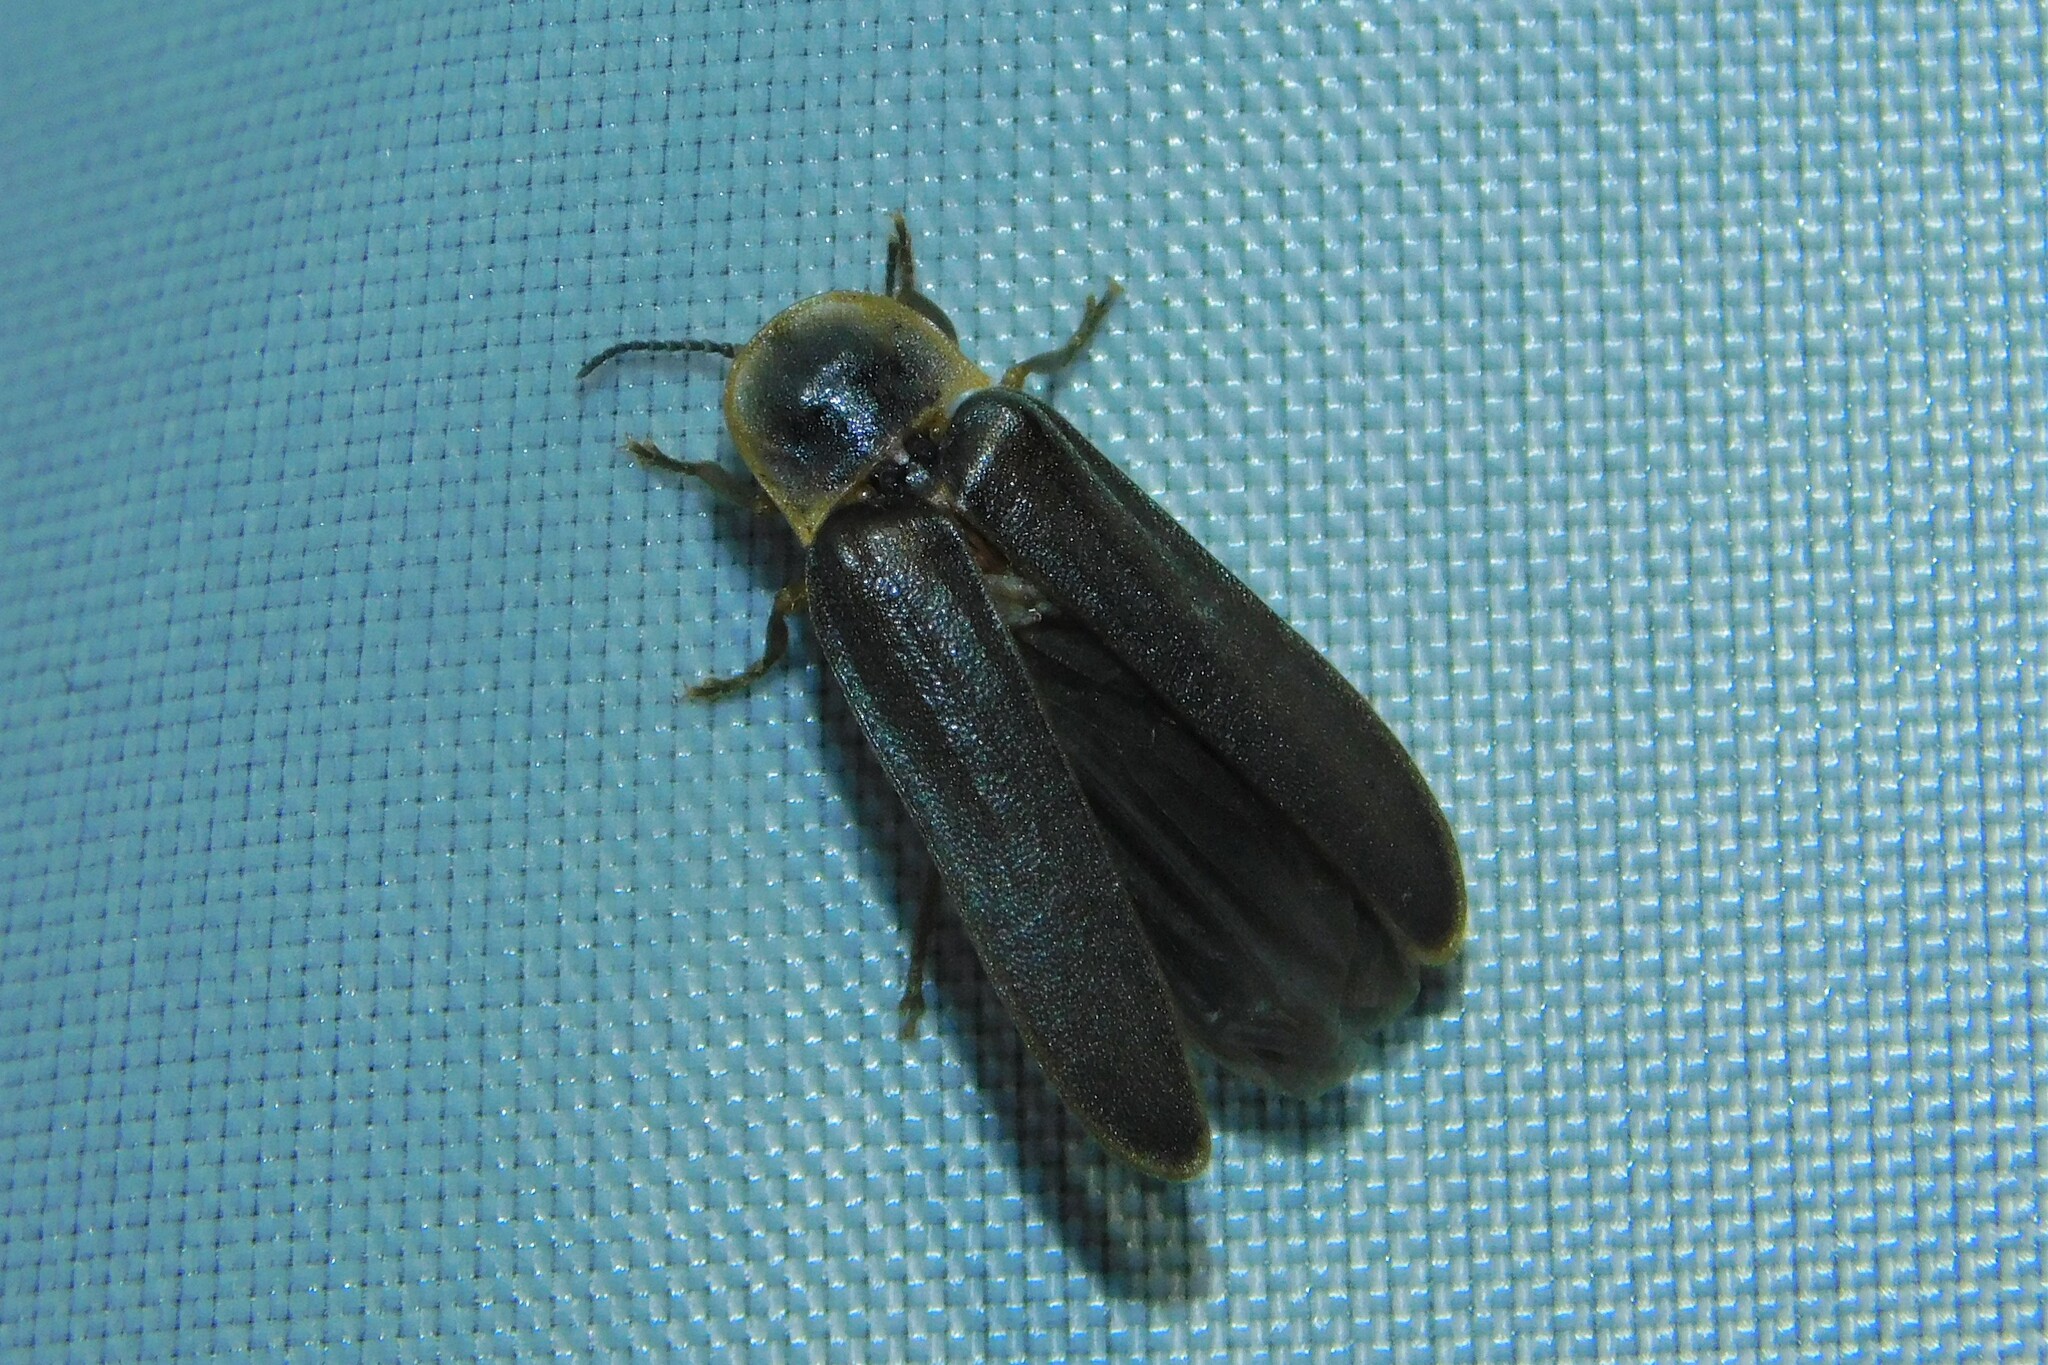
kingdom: Animalia
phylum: Arthropoda
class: Insecta
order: Coleoptera
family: Lampyridae
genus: Lampyris
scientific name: Lampyris noctiluca
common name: Glow-worm
